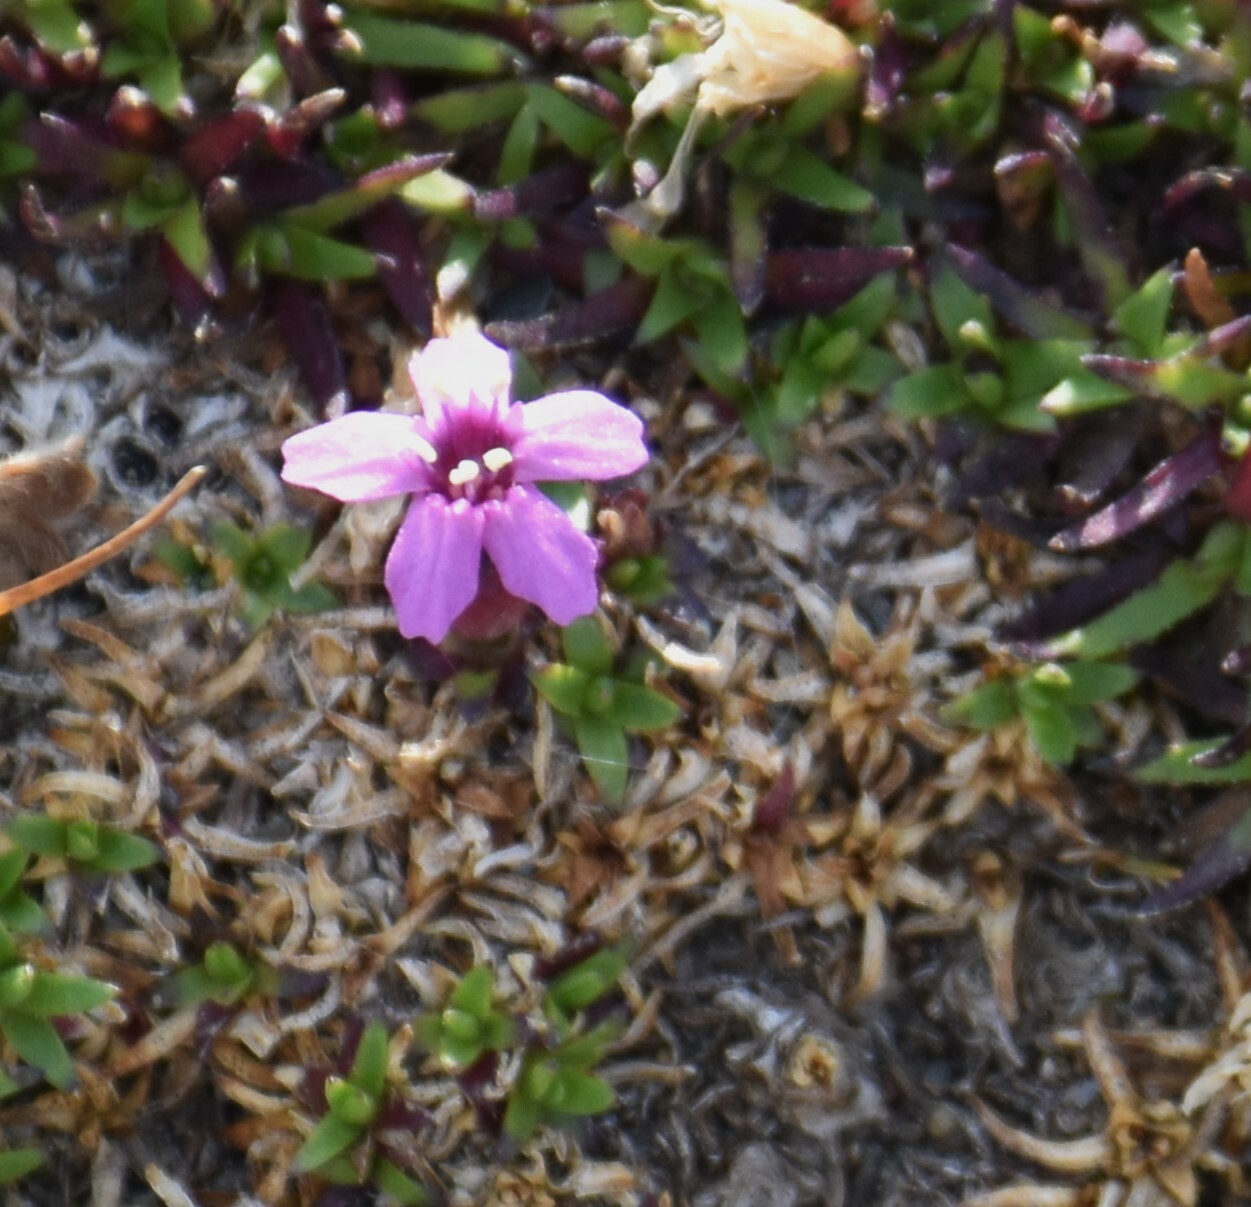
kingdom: Plantae
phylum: Tracheophyta
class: Magnoliopsida
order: Caryophyllales
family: Caryophyllaceae
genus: Silene
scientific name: Silene acaulis
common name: Moss campion
